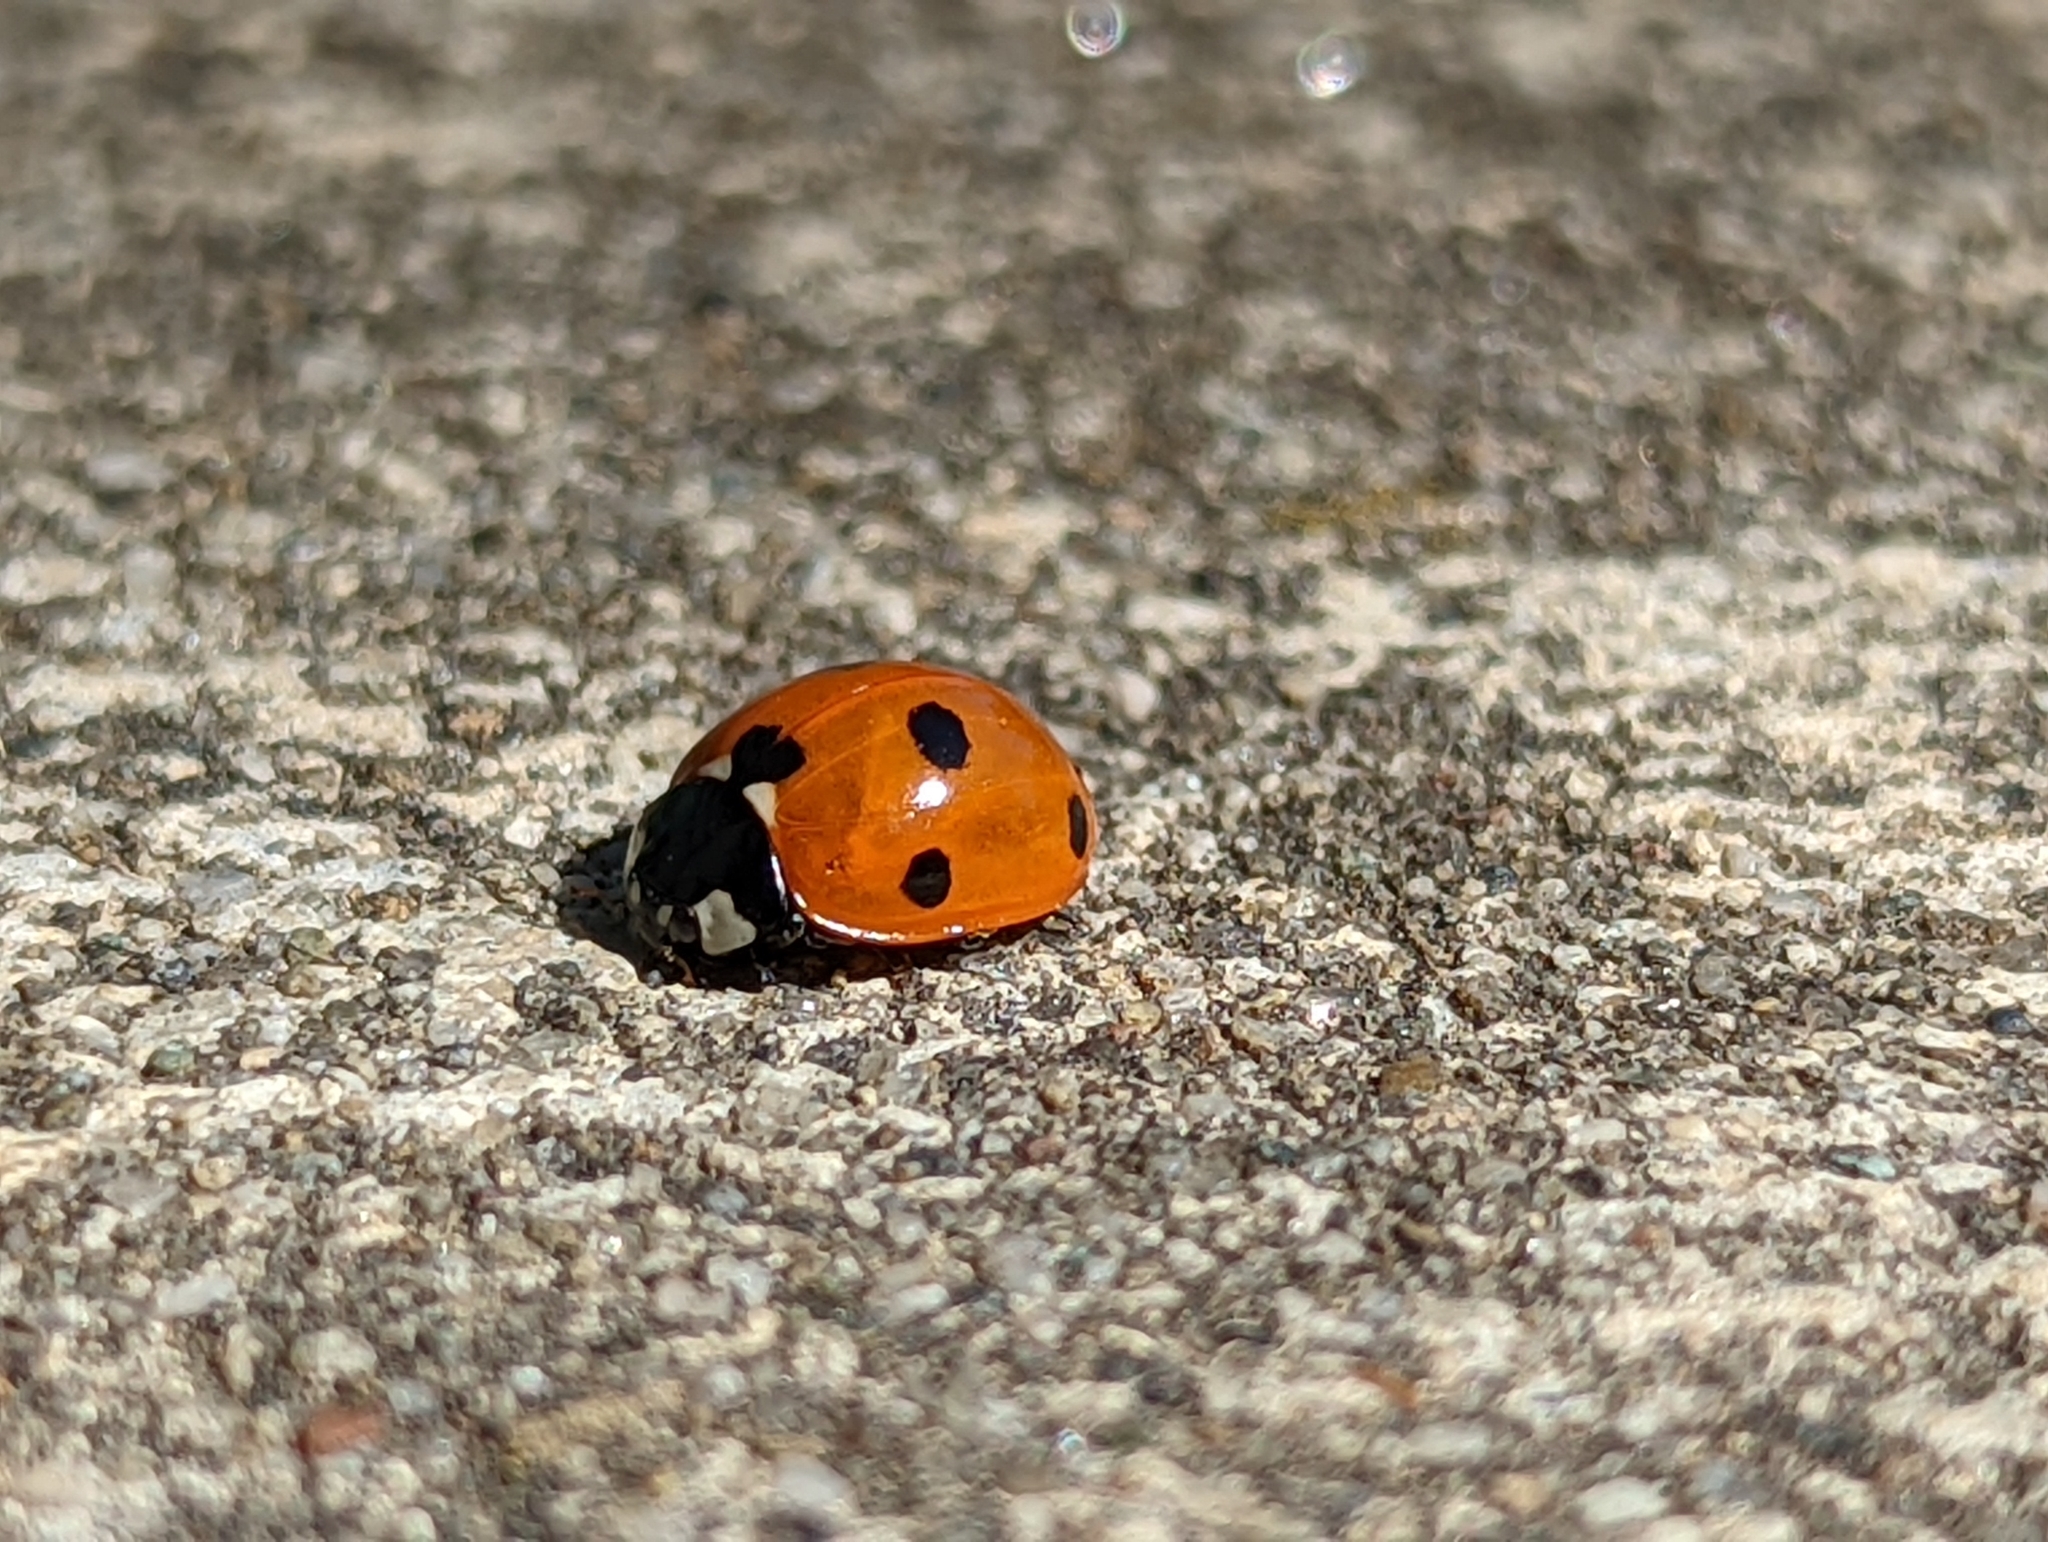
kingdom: Animalia
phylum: Arthropoda
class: Insecta
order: Coleoptera
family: Coccinellidae
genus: Coccinella
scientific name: Coccinella septempunctata
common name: Sevenspotted lady beetle
